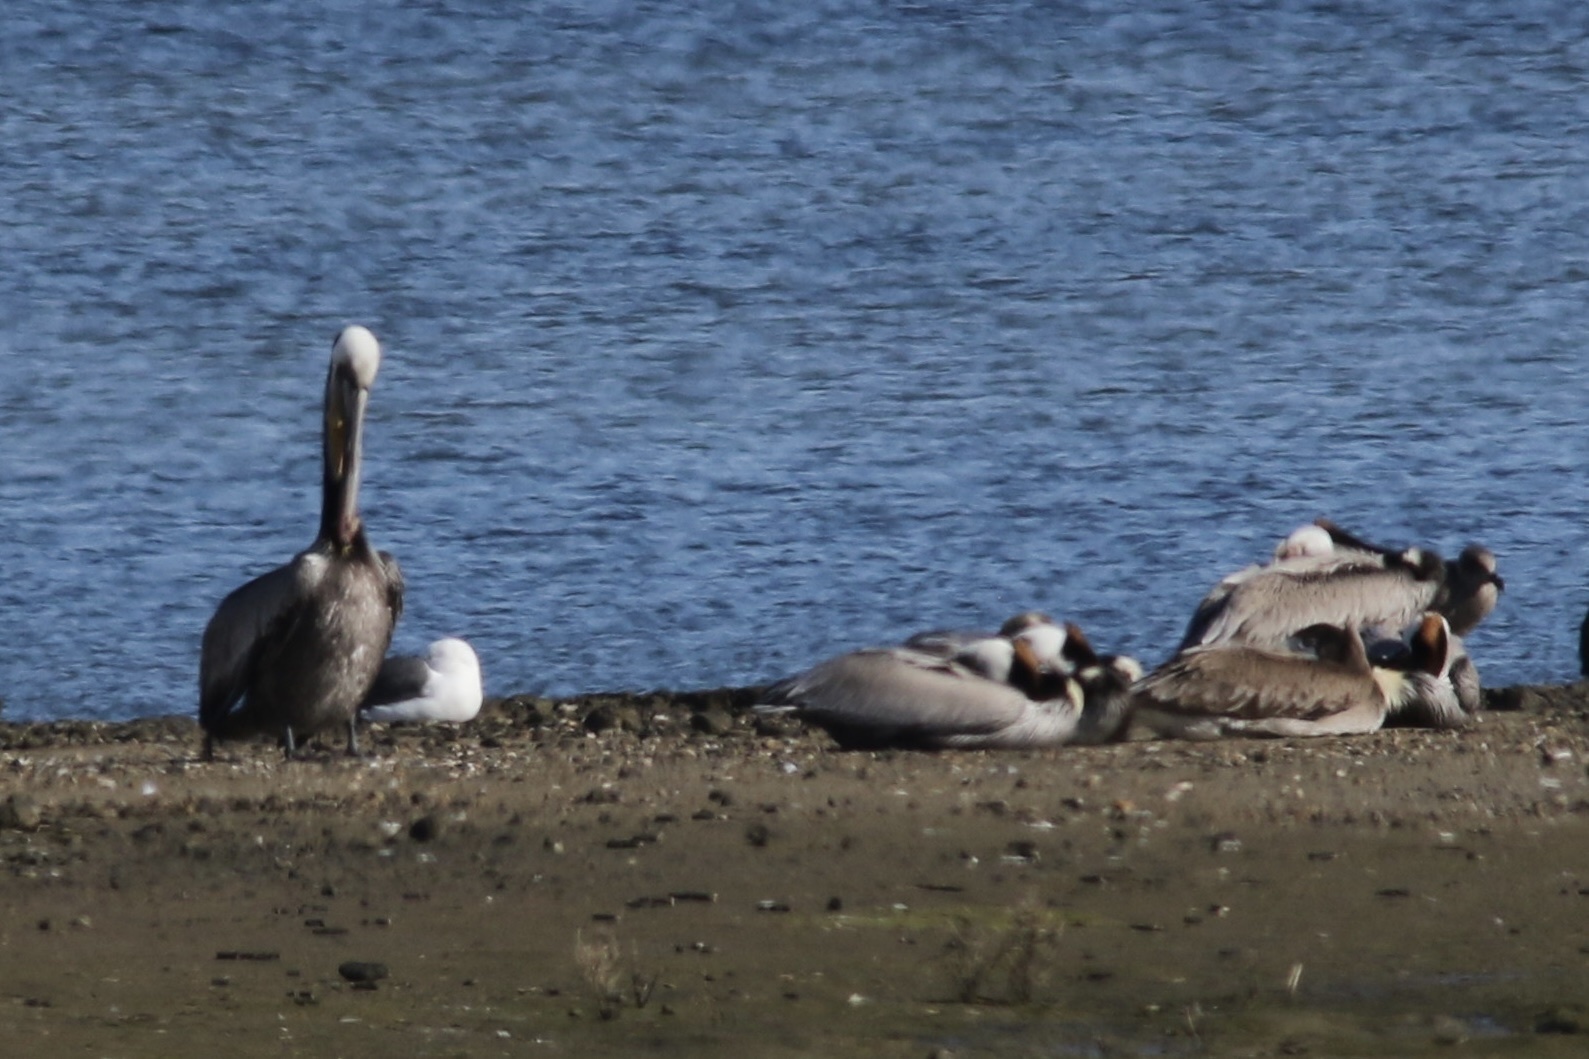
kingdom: Animalia
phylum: Chordata
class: Aves
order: Pelecaniformes
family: Pelecanidae
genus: Pelecanus
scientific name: Pelecanus occidentalis
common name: Brown pelican
